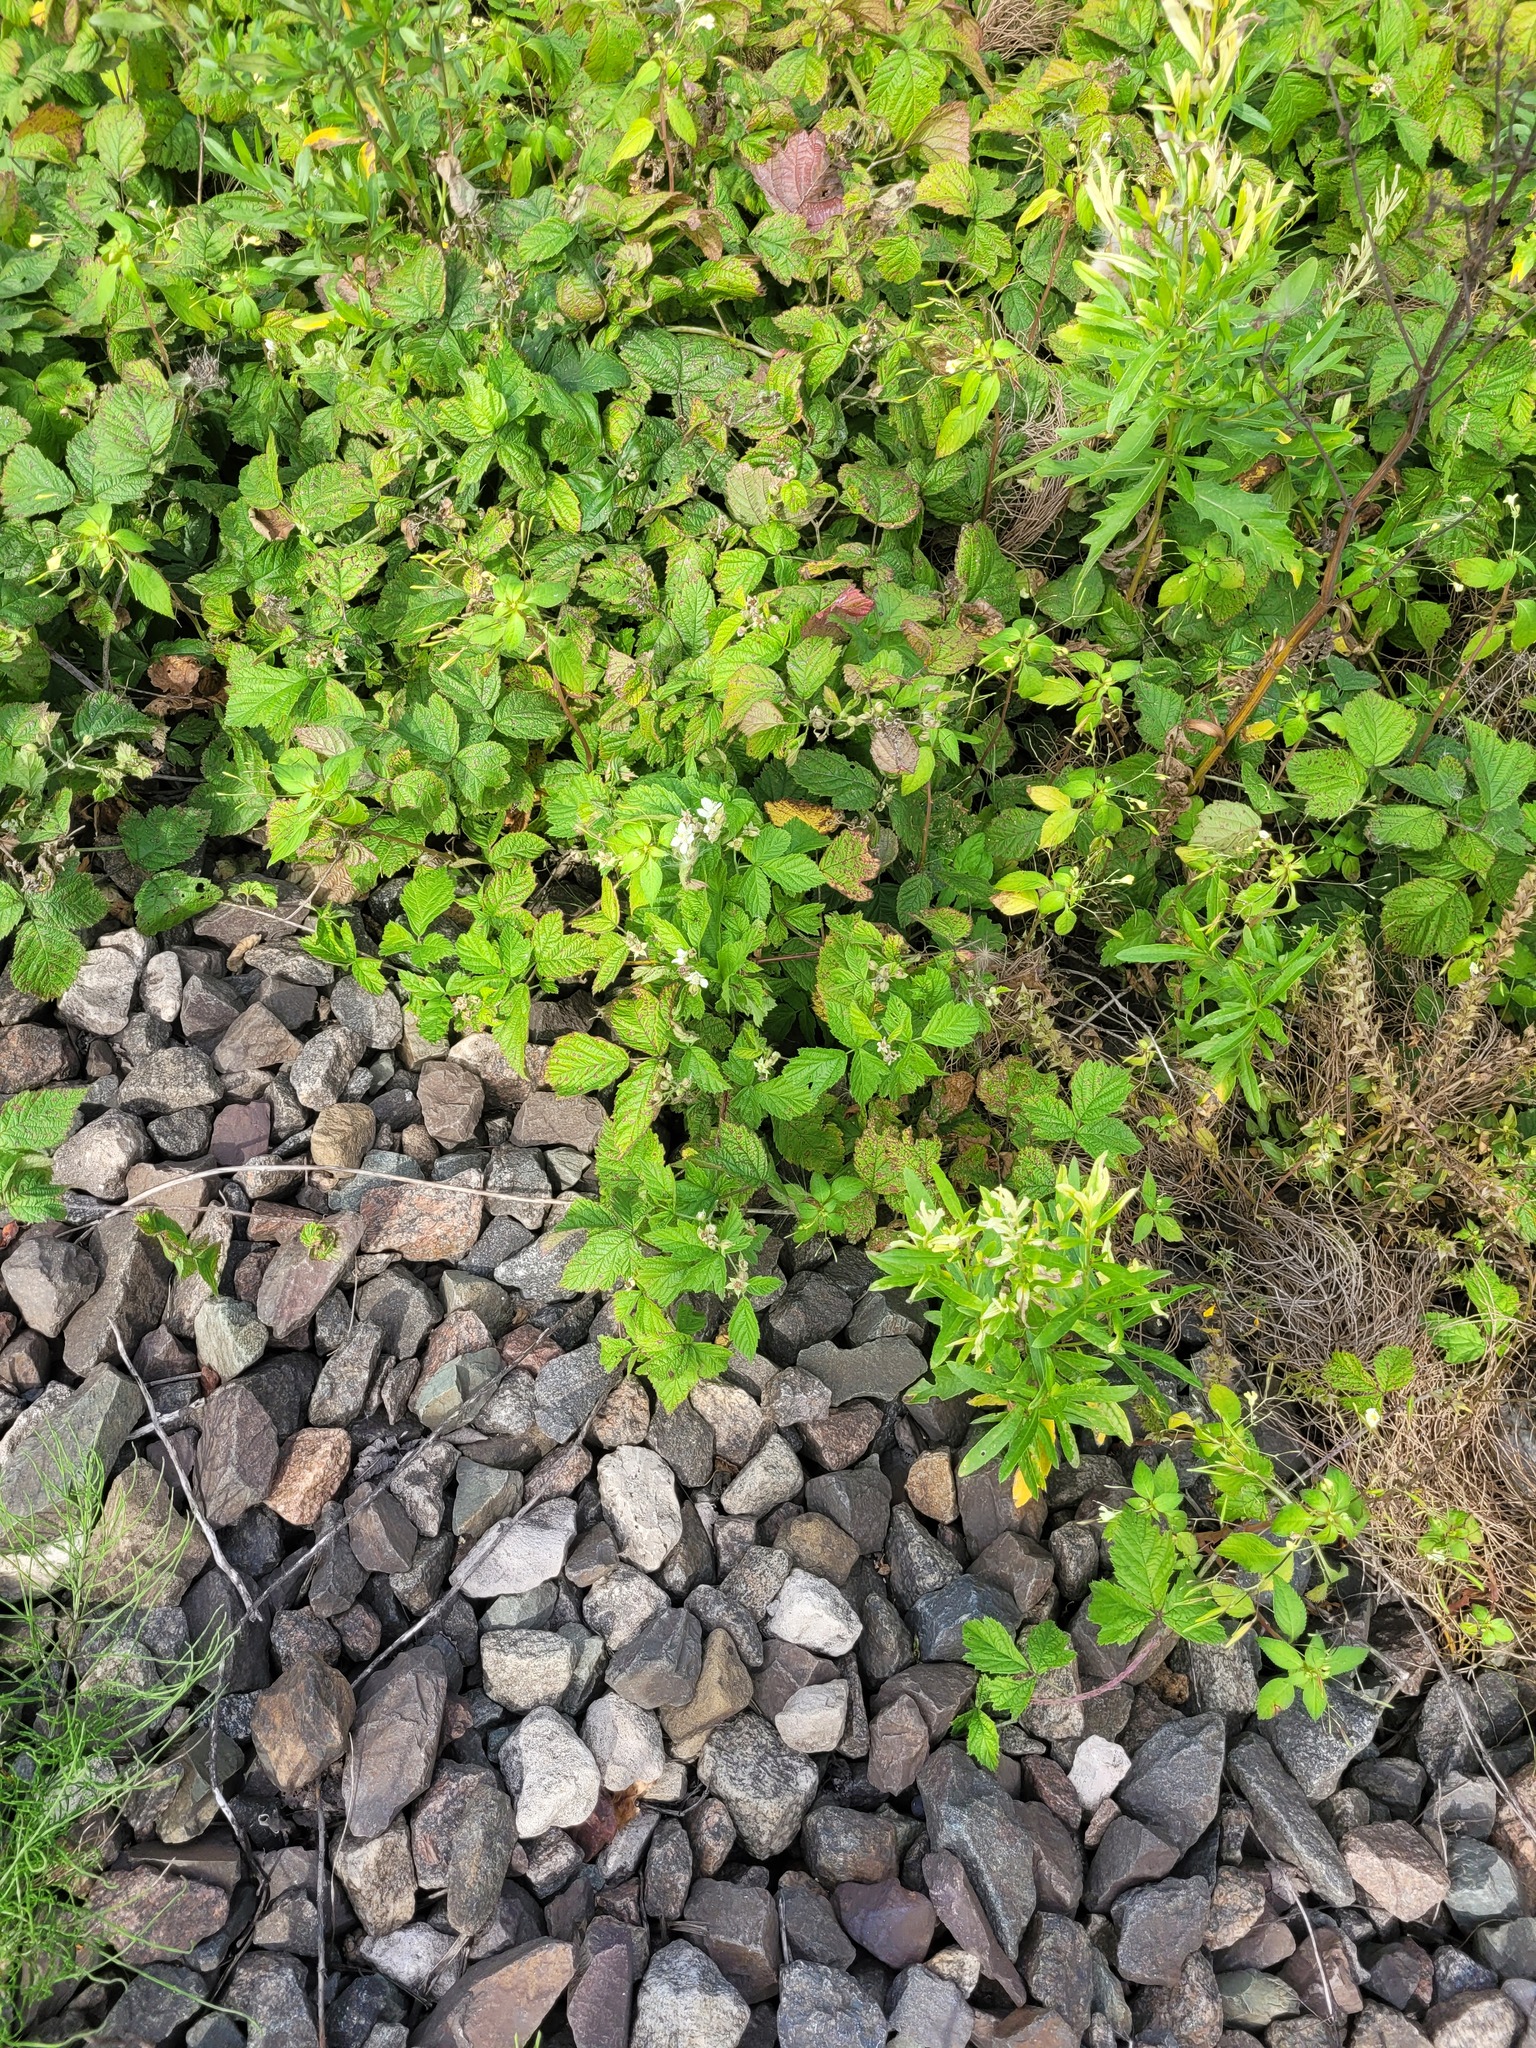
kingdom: Plantae
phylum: Tracheophyta
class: Magnoliopsida
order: Rosales
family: Rosaceae
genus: Rubus
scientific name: Rubus caesius
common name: Dewberry
